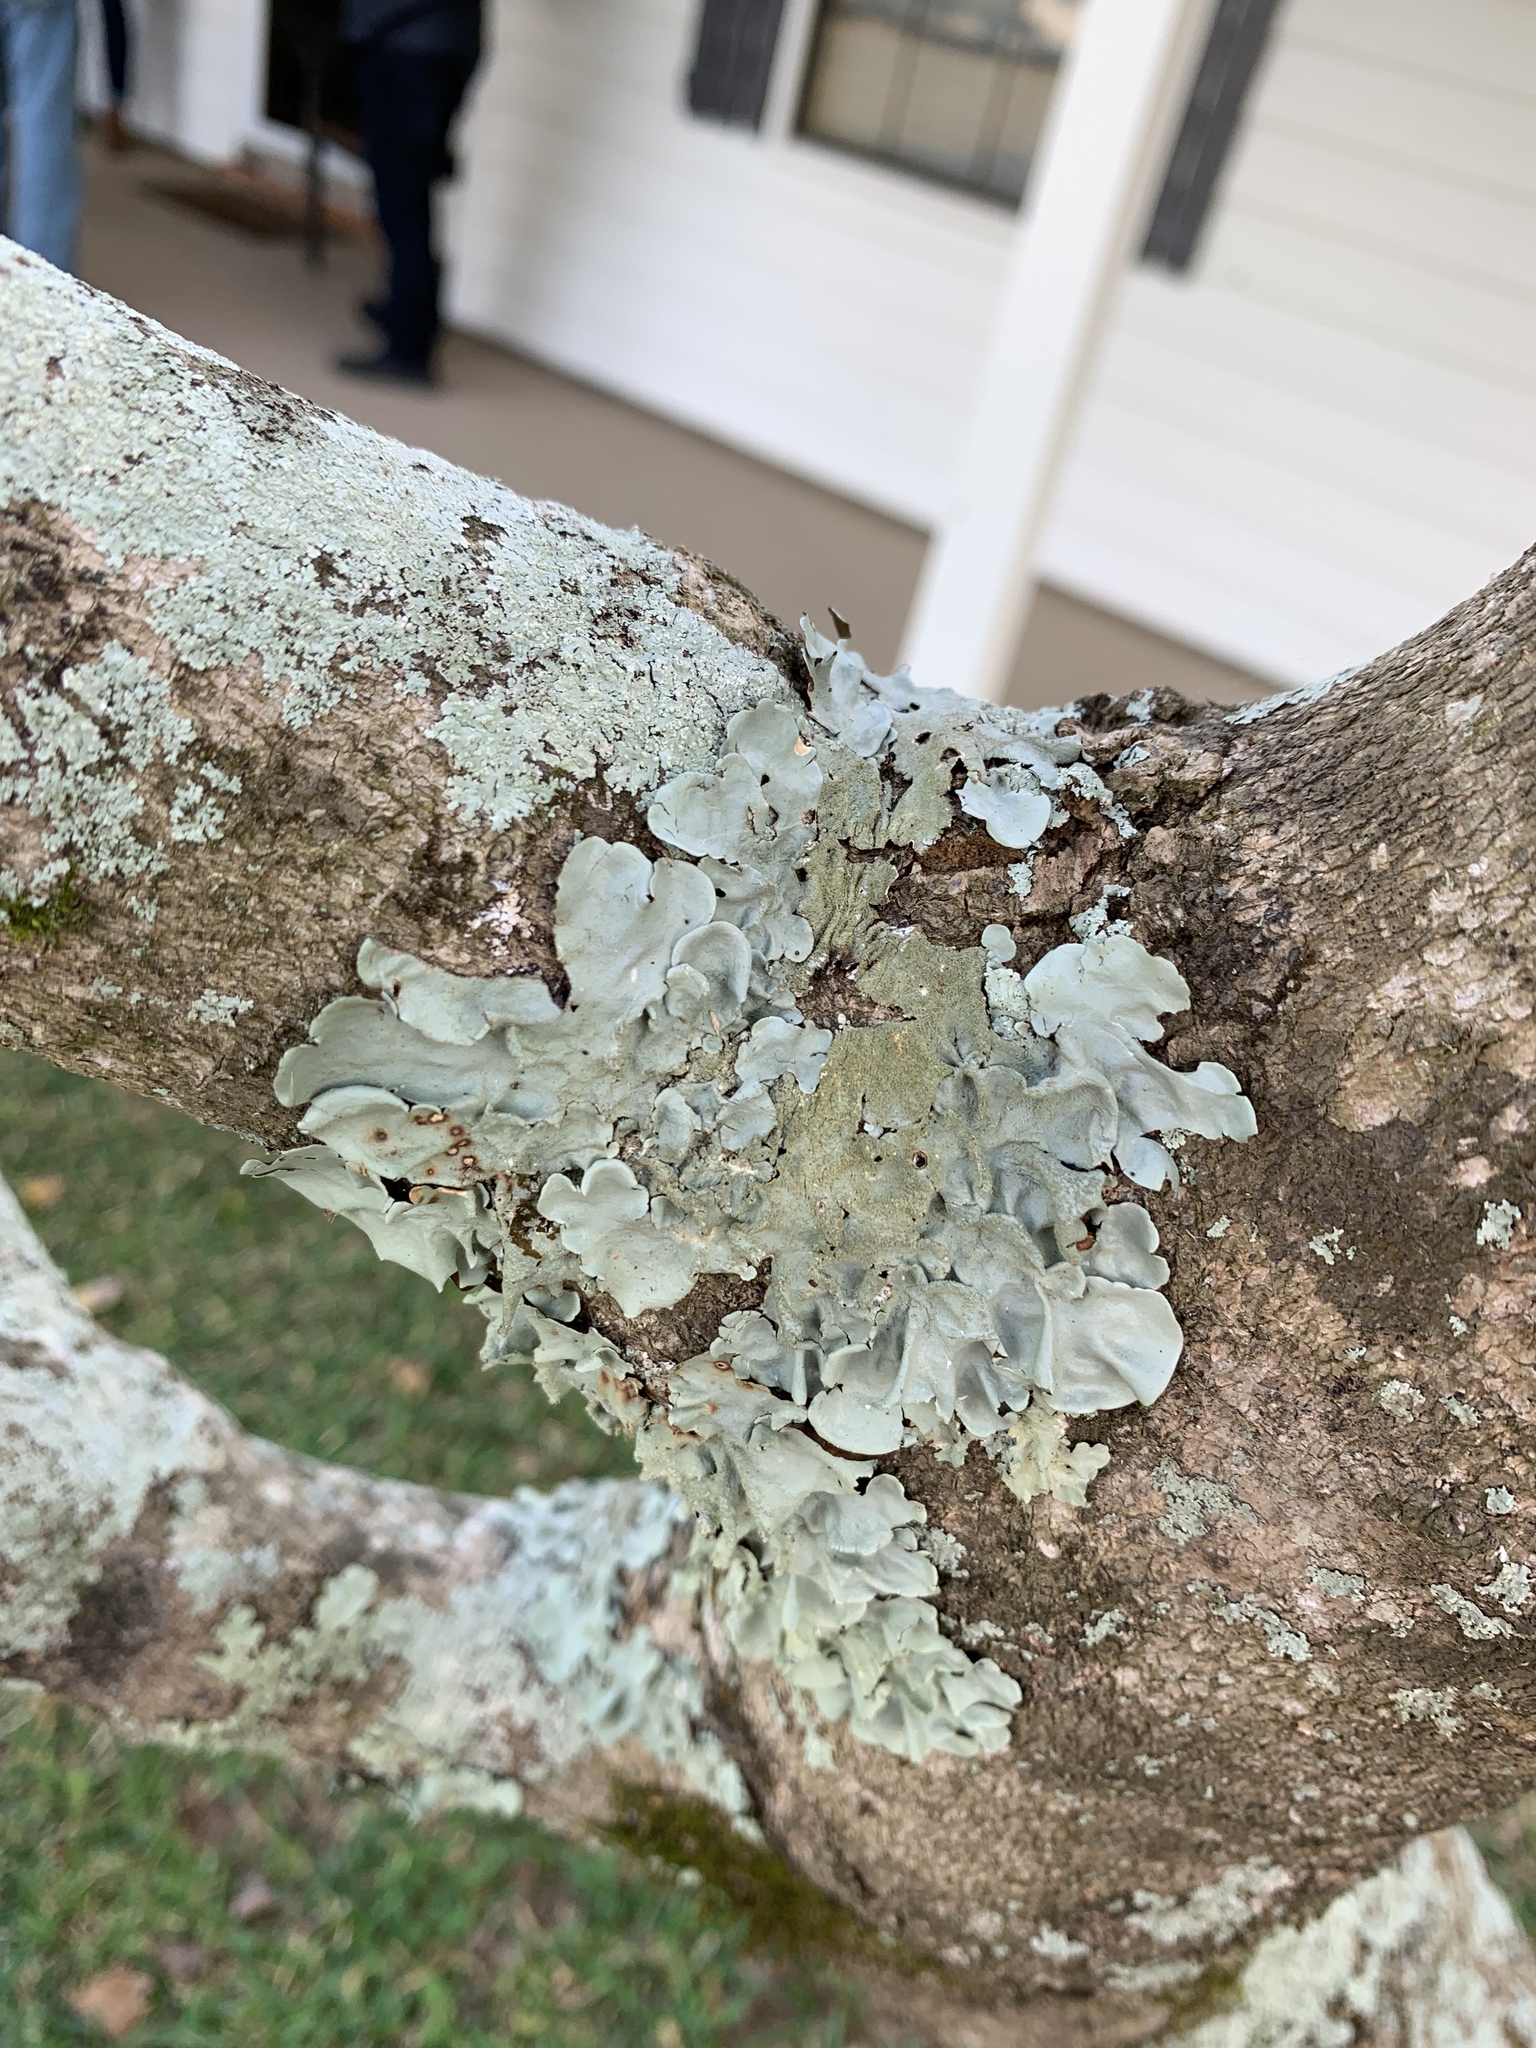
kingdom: Fungi
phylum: Ascomycota
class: Lecanoromycetes
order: Lecanorales
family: Parmeliaceae
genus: Parmotrema
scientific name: Parmotrema tinctorum
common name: Old gray ruffles
